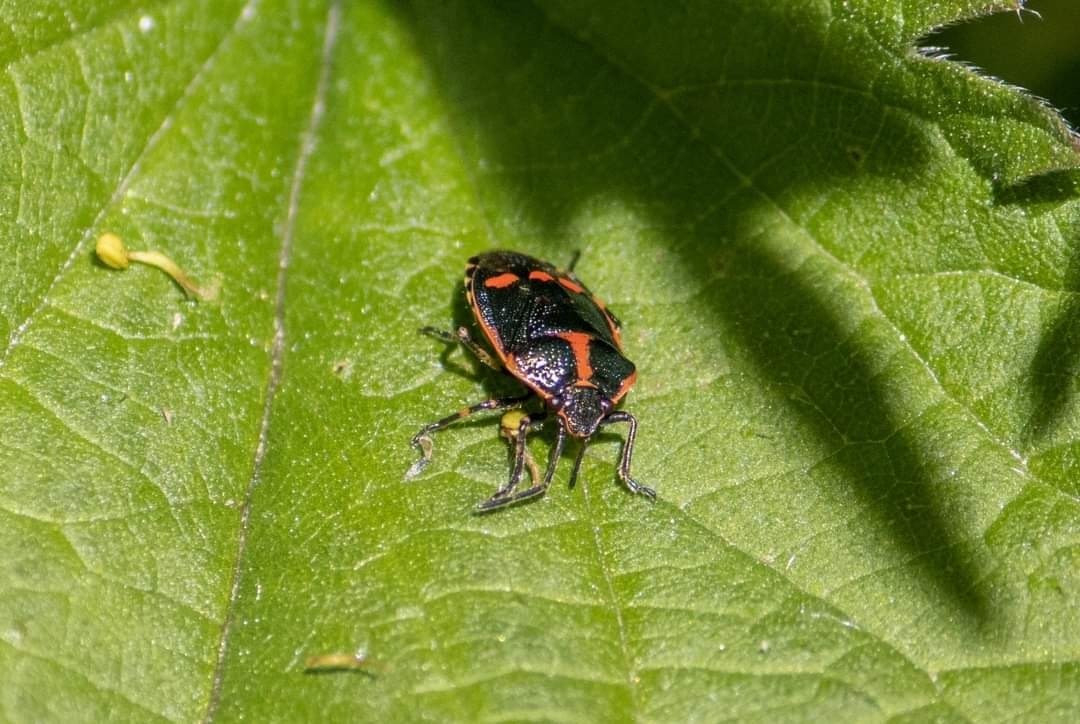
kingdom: Animalia
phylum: Arthropoda
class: Insecta
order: Hemiptera
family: Pentatomidae
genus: Eurydema
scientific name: Eurydema oleracea
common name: Cabbage bug
